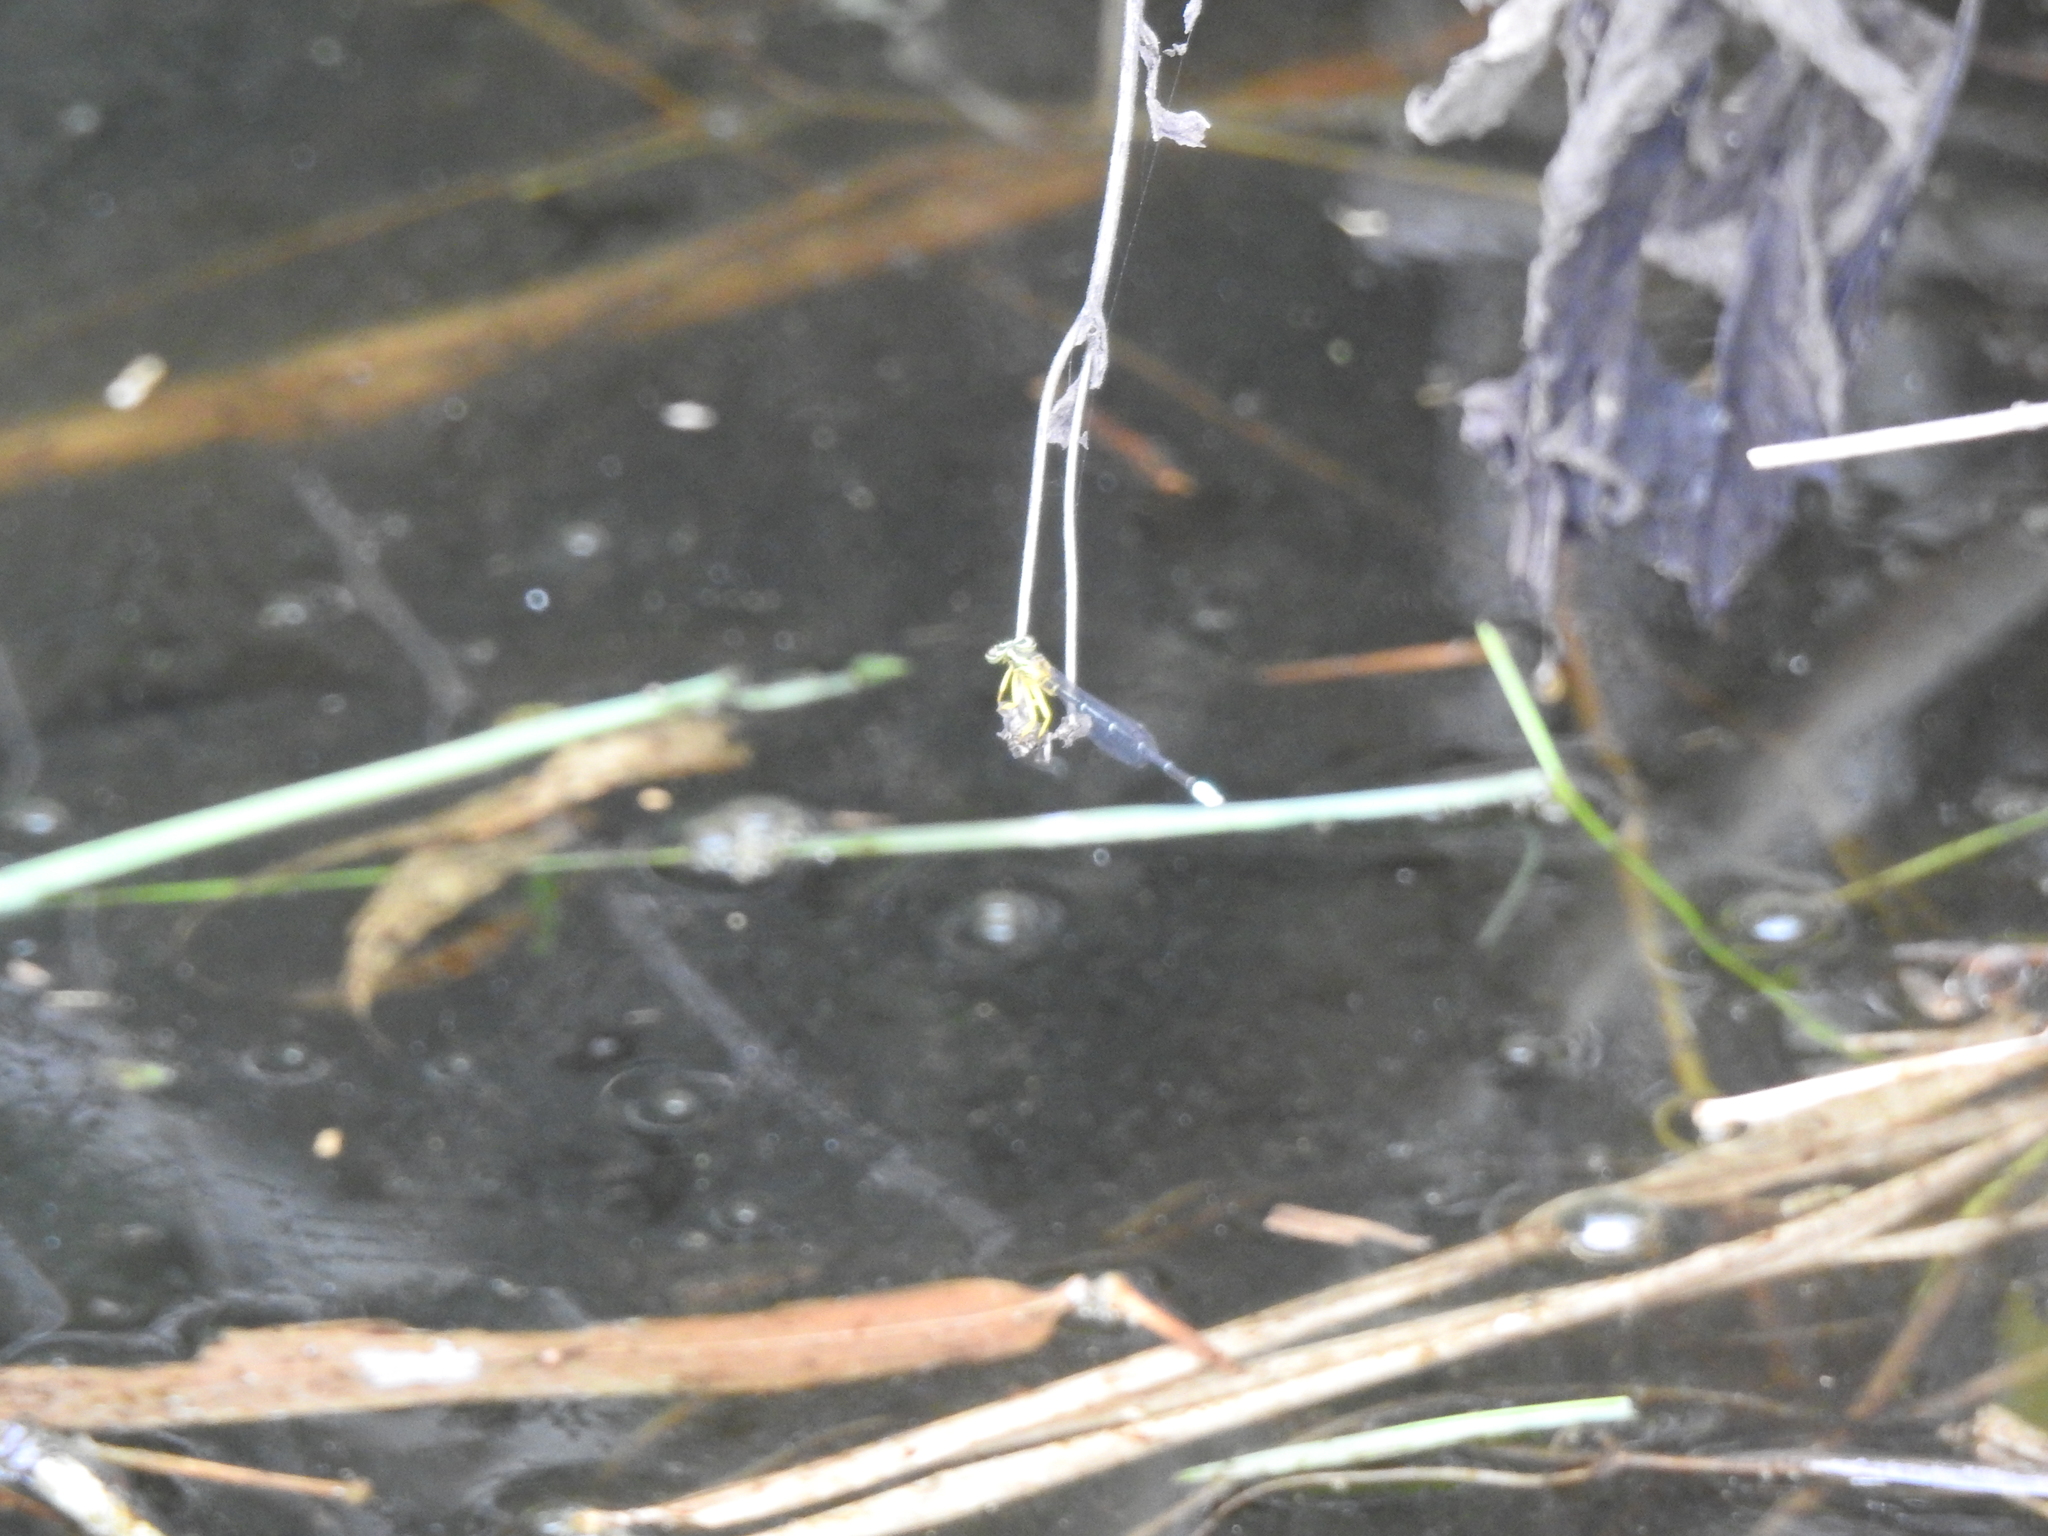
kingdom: Animalia
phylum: Arthropoda
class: Insecta
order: Odonata
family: Platycnemididae
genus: Copera
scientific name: Copera marginipes
